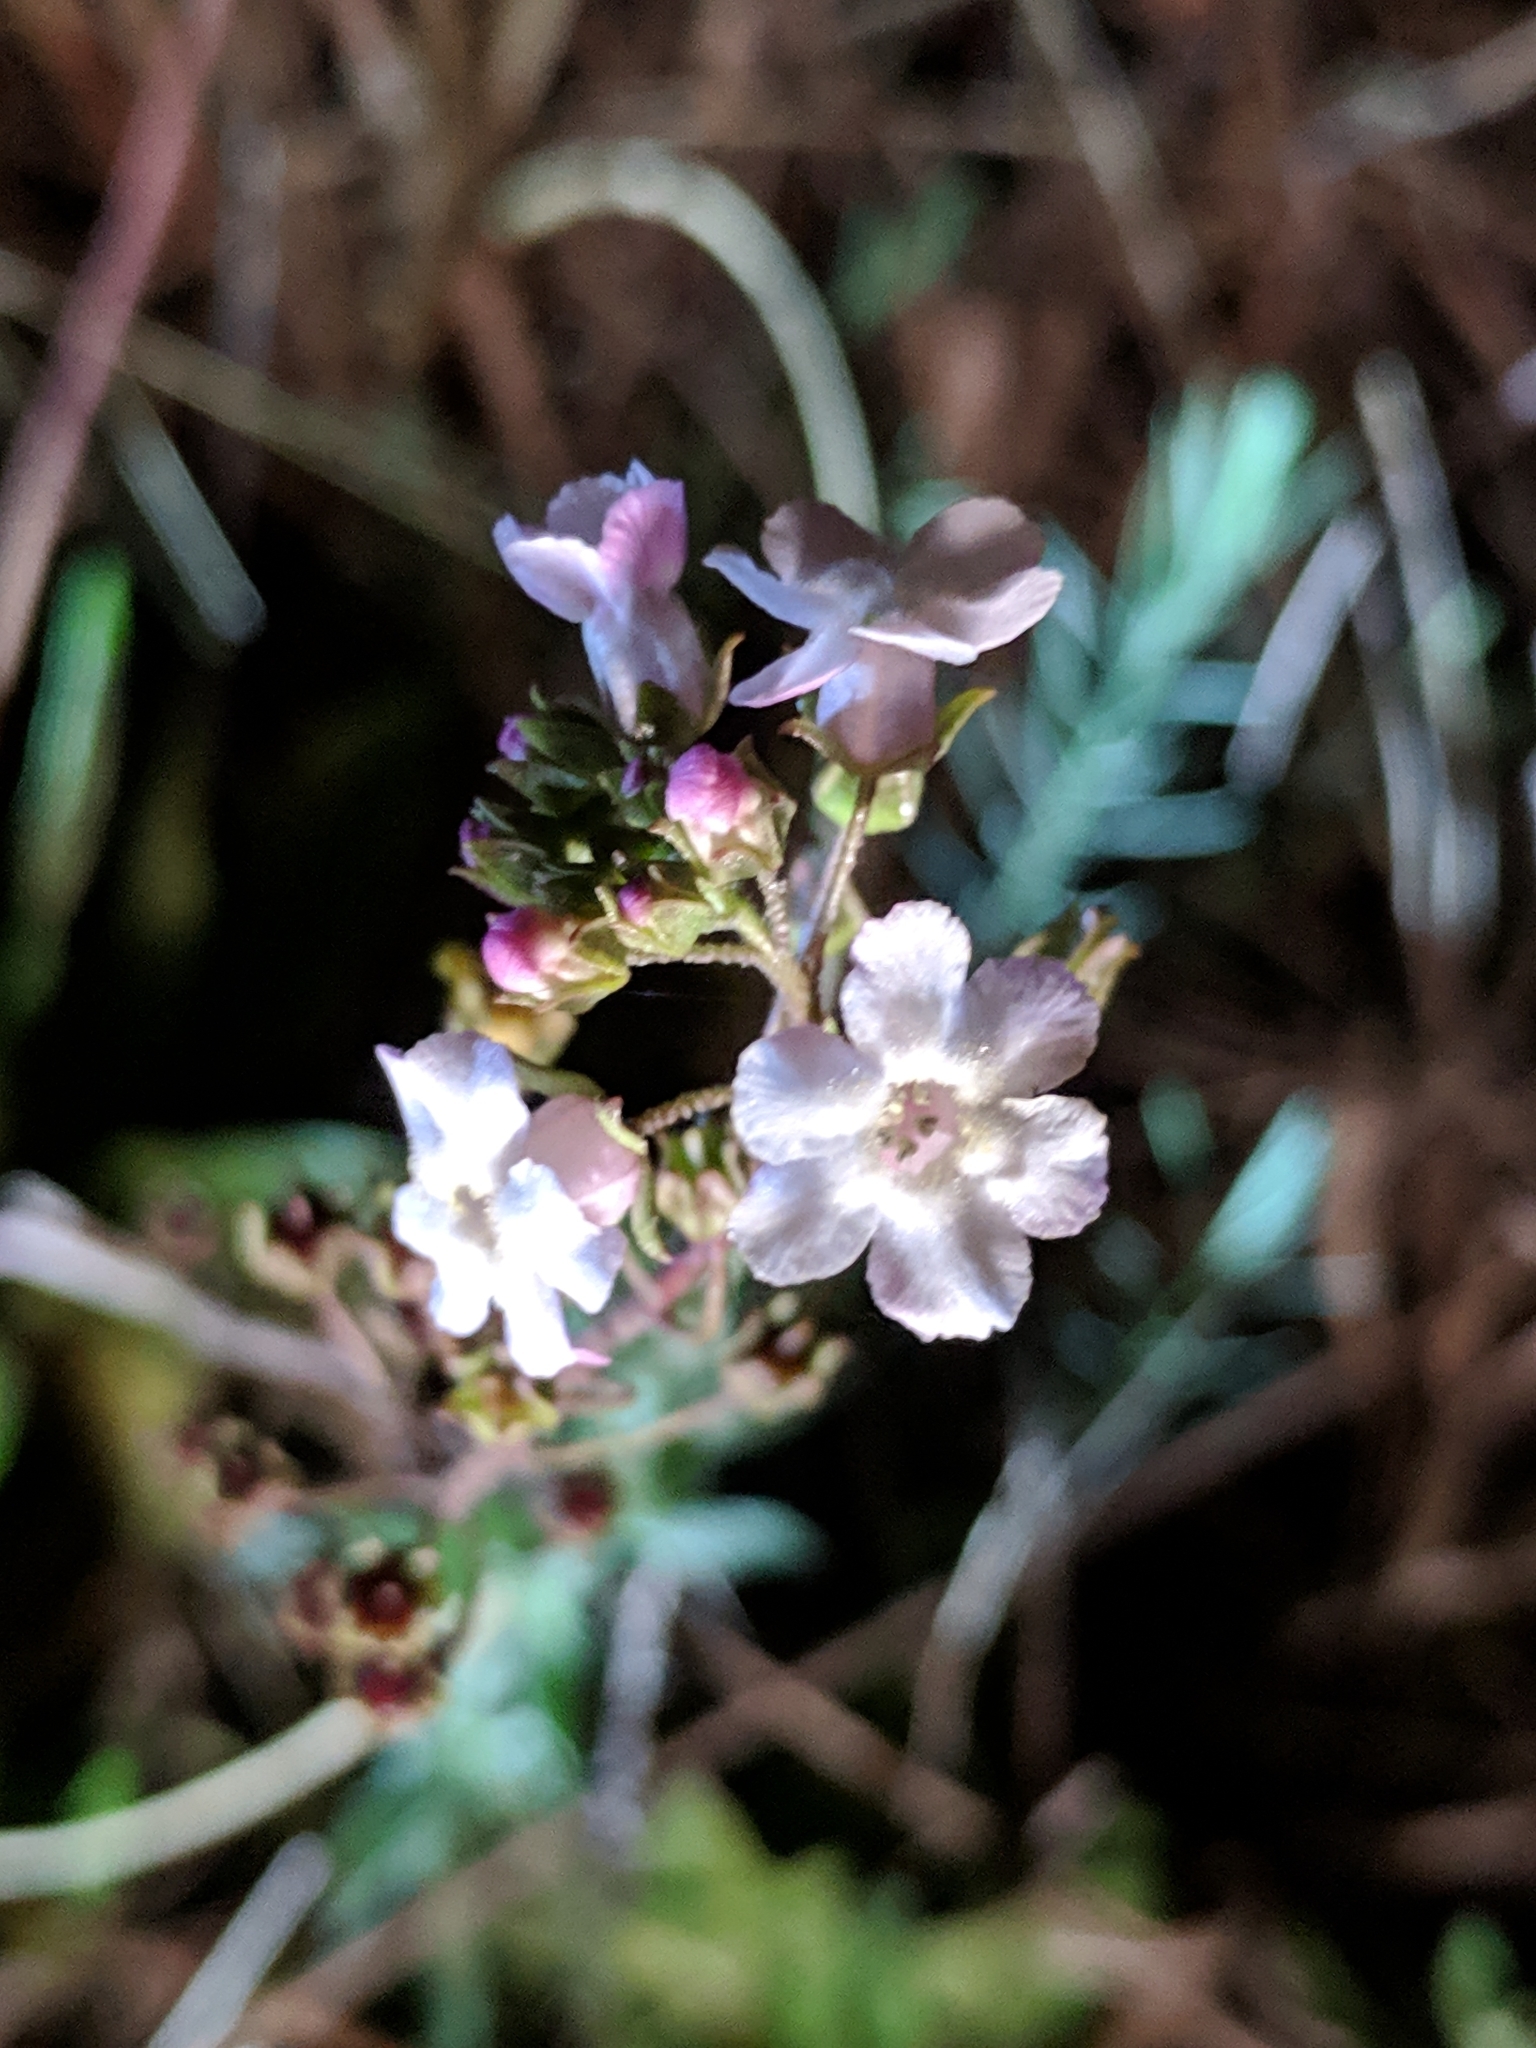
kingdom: Plantae
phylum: Tracheophyta
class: Magnoliopsida
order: Ericales
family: Primulaceae
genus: Samolus
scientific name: Samolus ebracteatus
